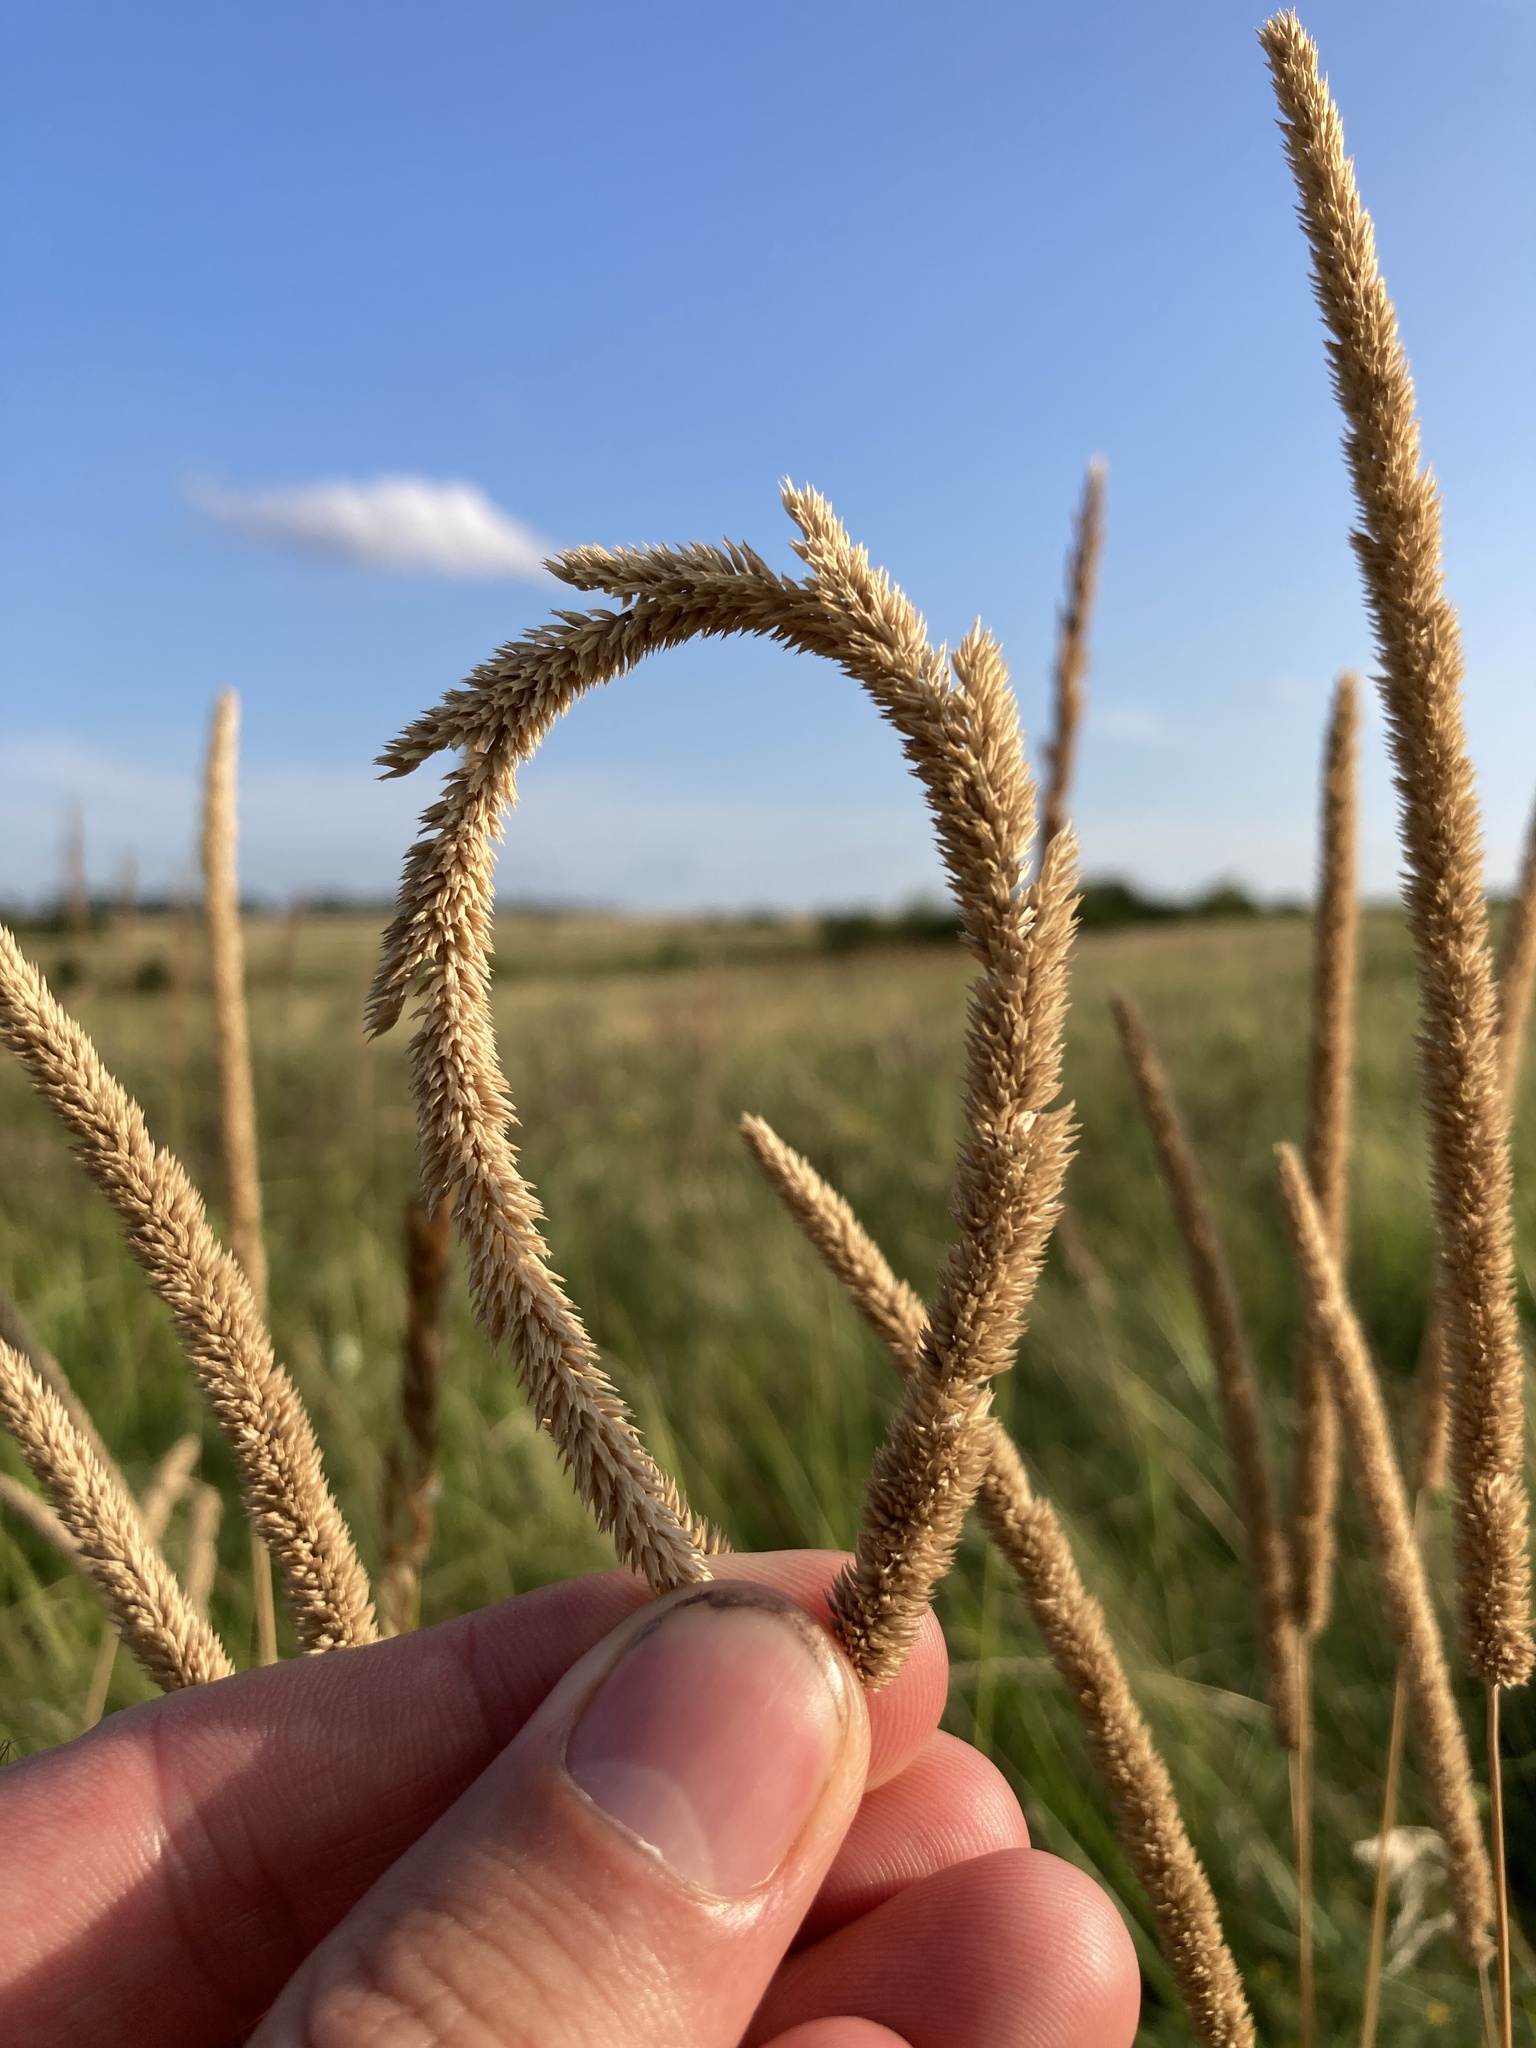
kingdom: Plantae
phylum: Tracheophyta
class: Liliopsida
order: Poales
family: Poaceae
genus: Phleum
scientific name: Phleum phleoides
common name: Purple-stem cat's-tail
